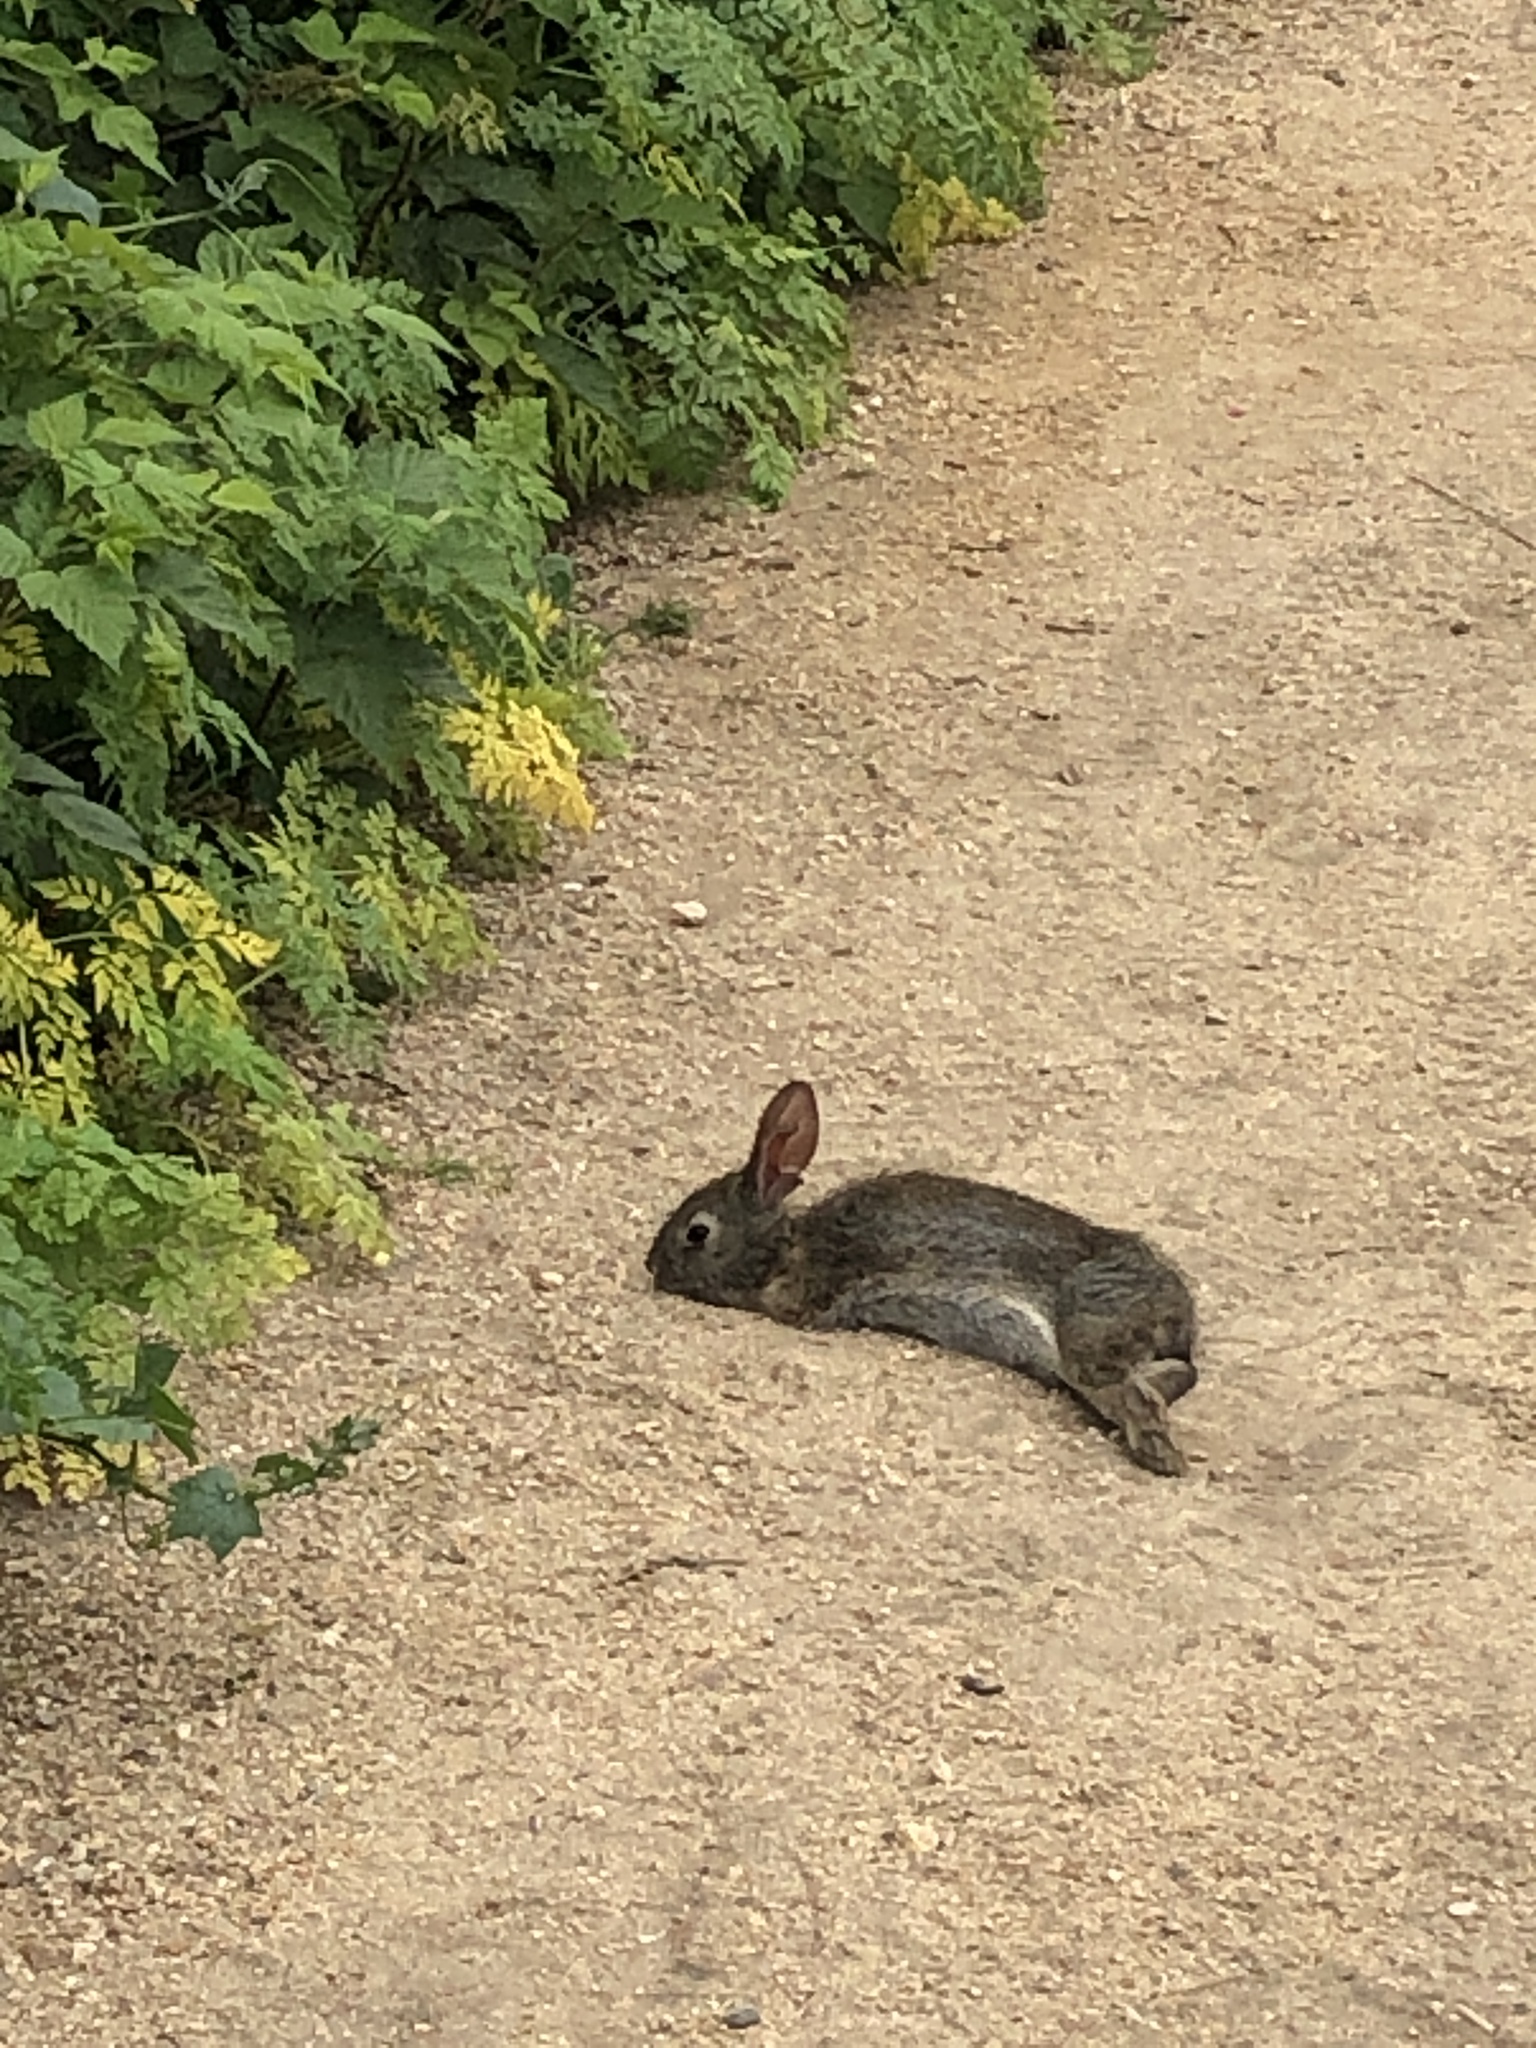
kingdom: Animalia
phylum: Chordata
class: Mammalia
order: Lagomorpha
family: Leporidae
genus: Sylvilagus
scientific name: Sylvilagus bachmani
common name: Brush rabbit
